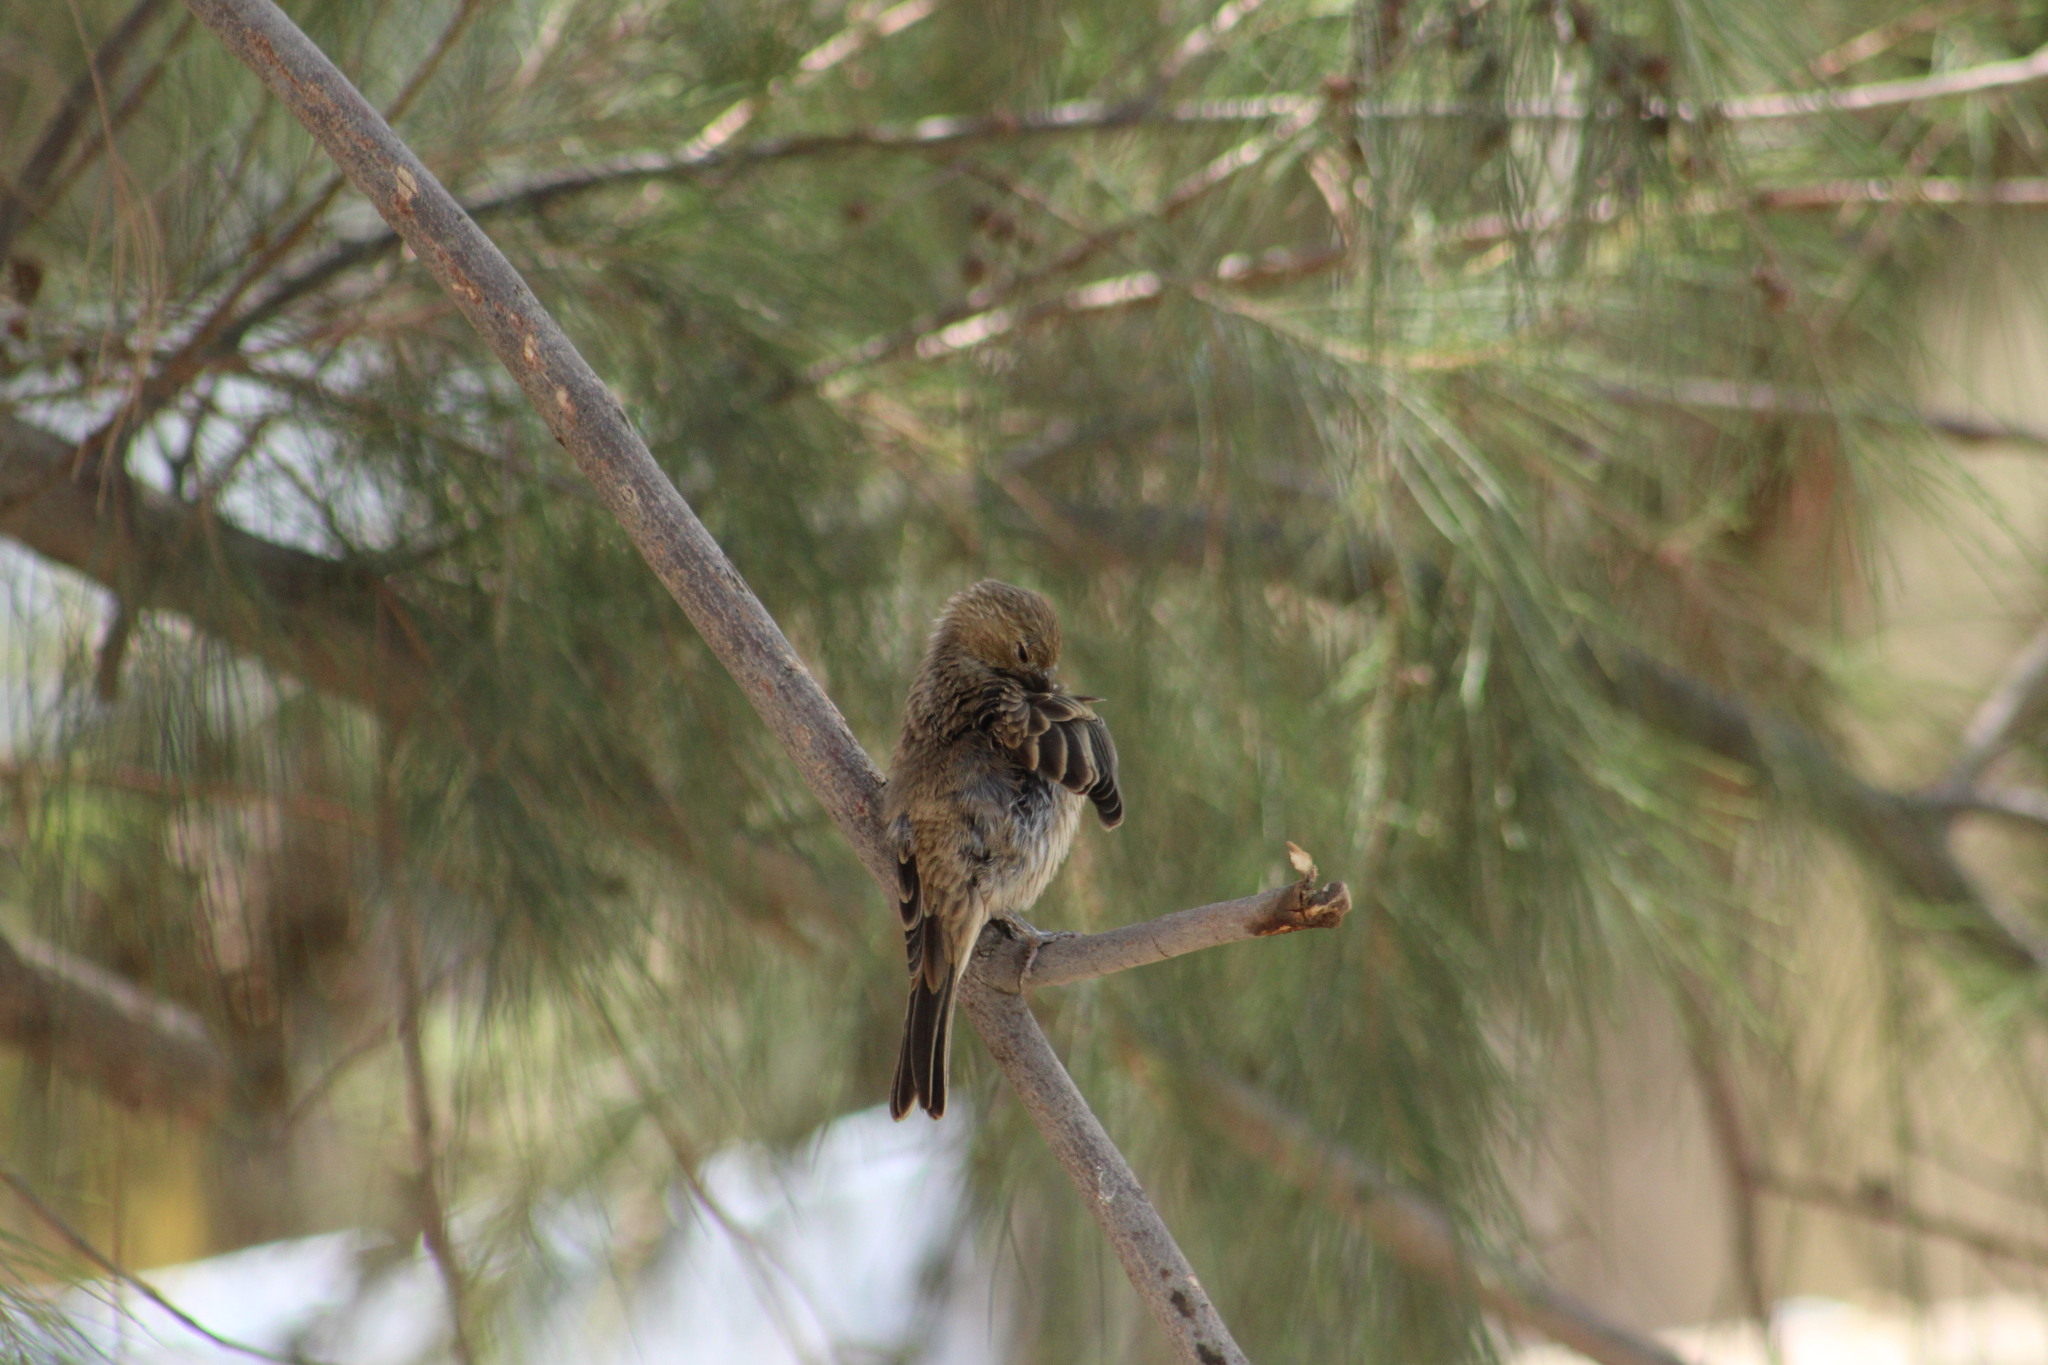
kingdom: Animalia
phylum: Chordata
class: Aves
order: Passeriformes
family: Fringillidae
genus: Haemorhous
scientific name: Haemorhous mexicanus
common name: House finch
